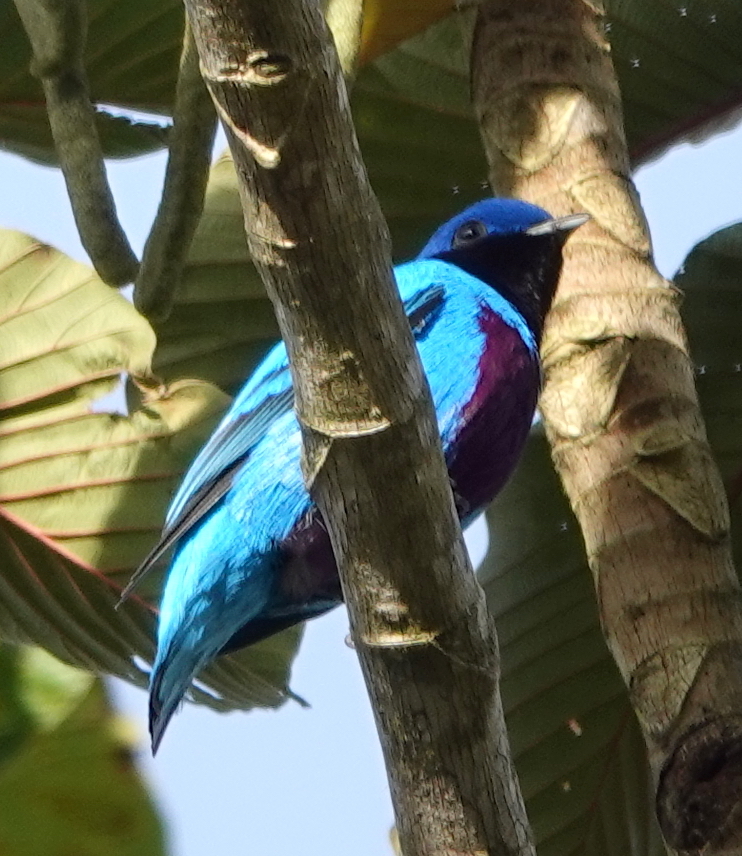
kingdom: Animalia
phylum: Chordata
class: Aves
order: Passeriformes
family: Cotingidae
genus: Cotinga
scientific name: Cotinga amabilis
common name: Lovely cotinga
